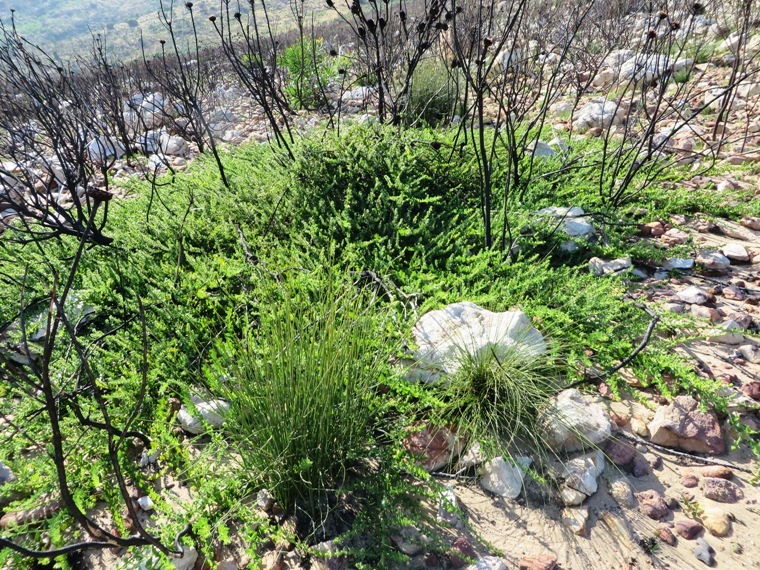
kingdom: Plantae
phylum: Tracheophyta
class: Magnoliopsida
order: Lamiales
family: Scrophulariaceae
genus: Oftia
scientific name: Oftia africana
